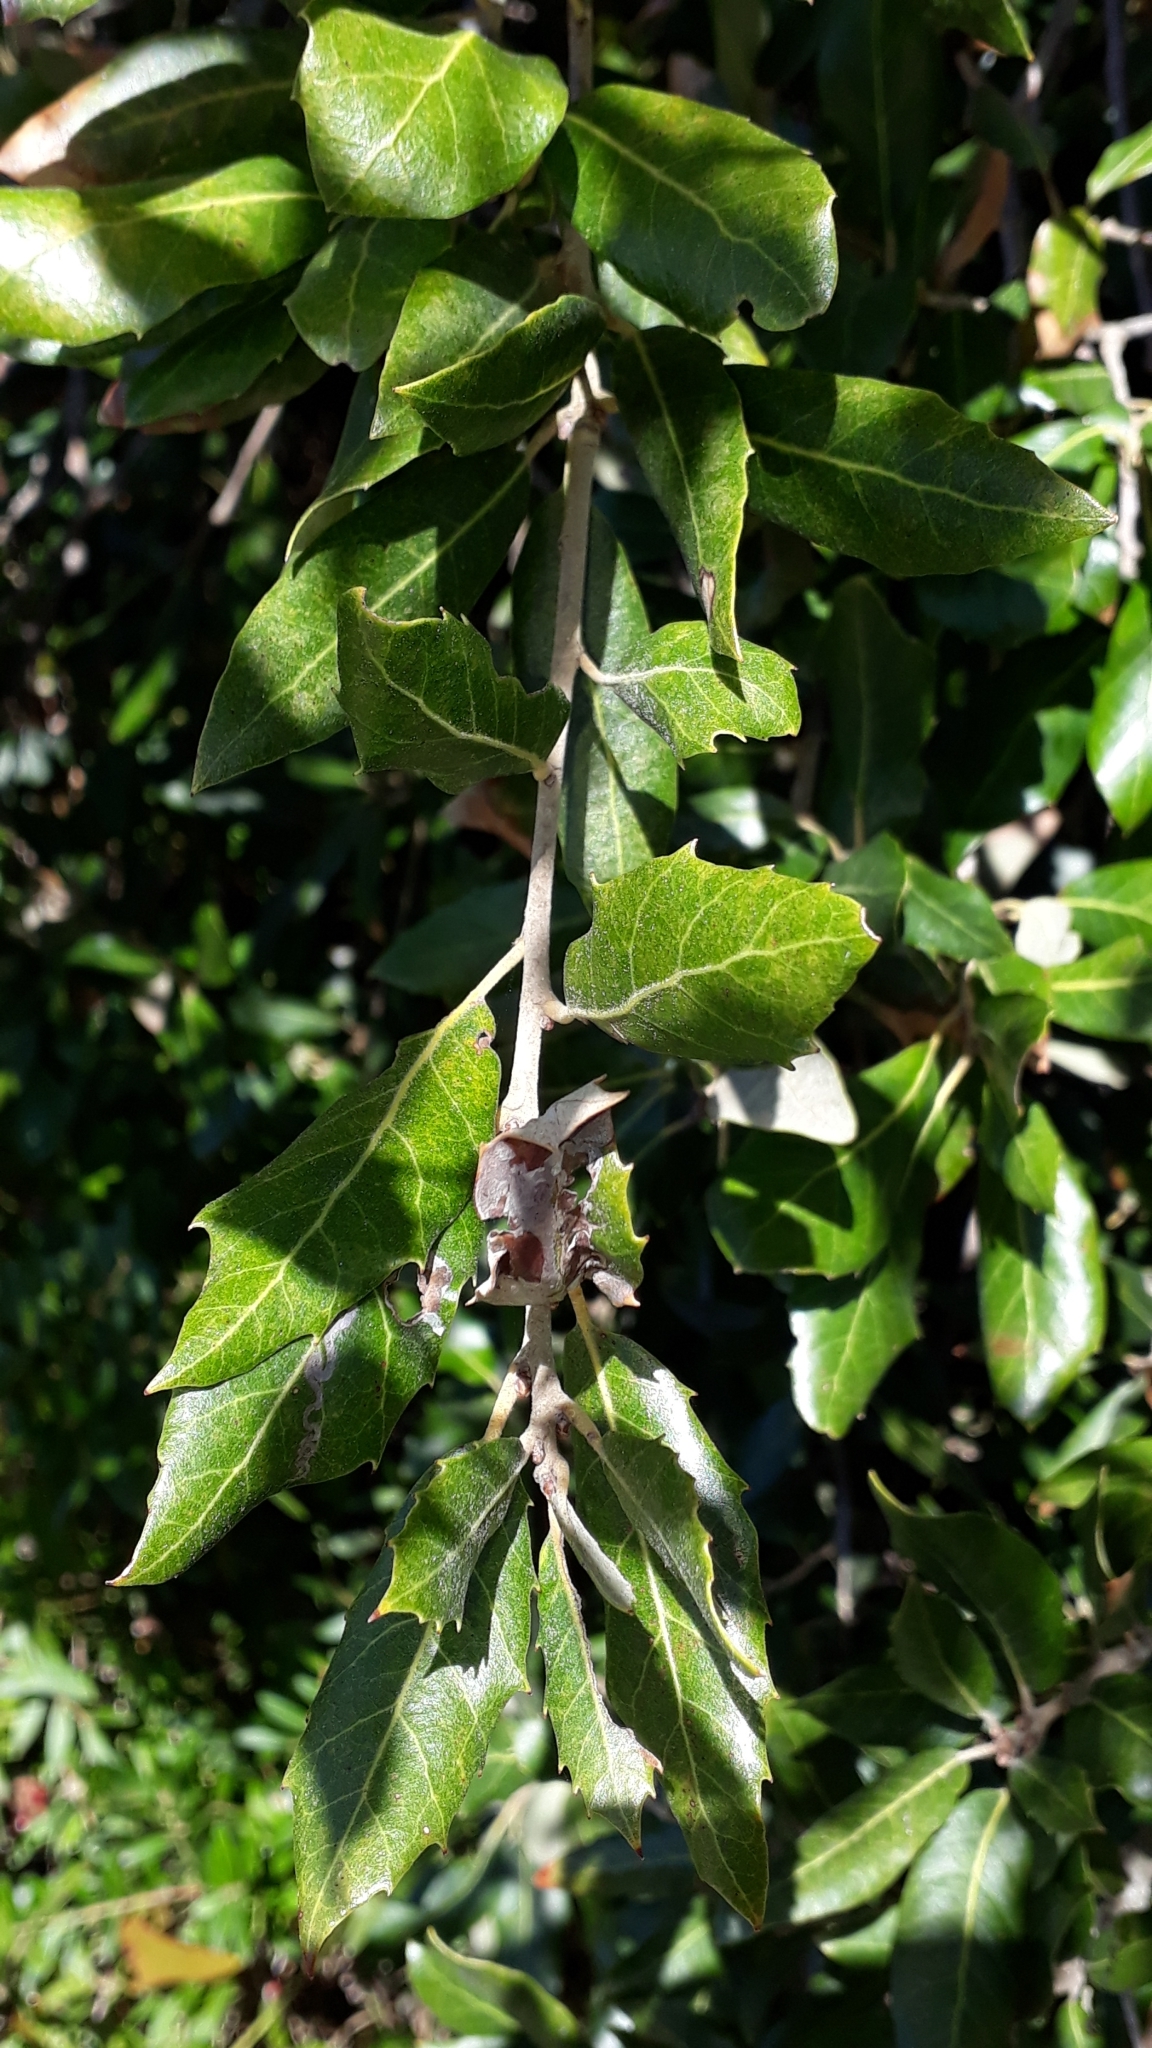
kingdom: Plantae
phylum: Tracheophyta
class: Magnoliopsida
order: Fagales
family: Fagaceae
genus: Quercus
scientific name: Quercus ilex
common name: Evergreen oak
